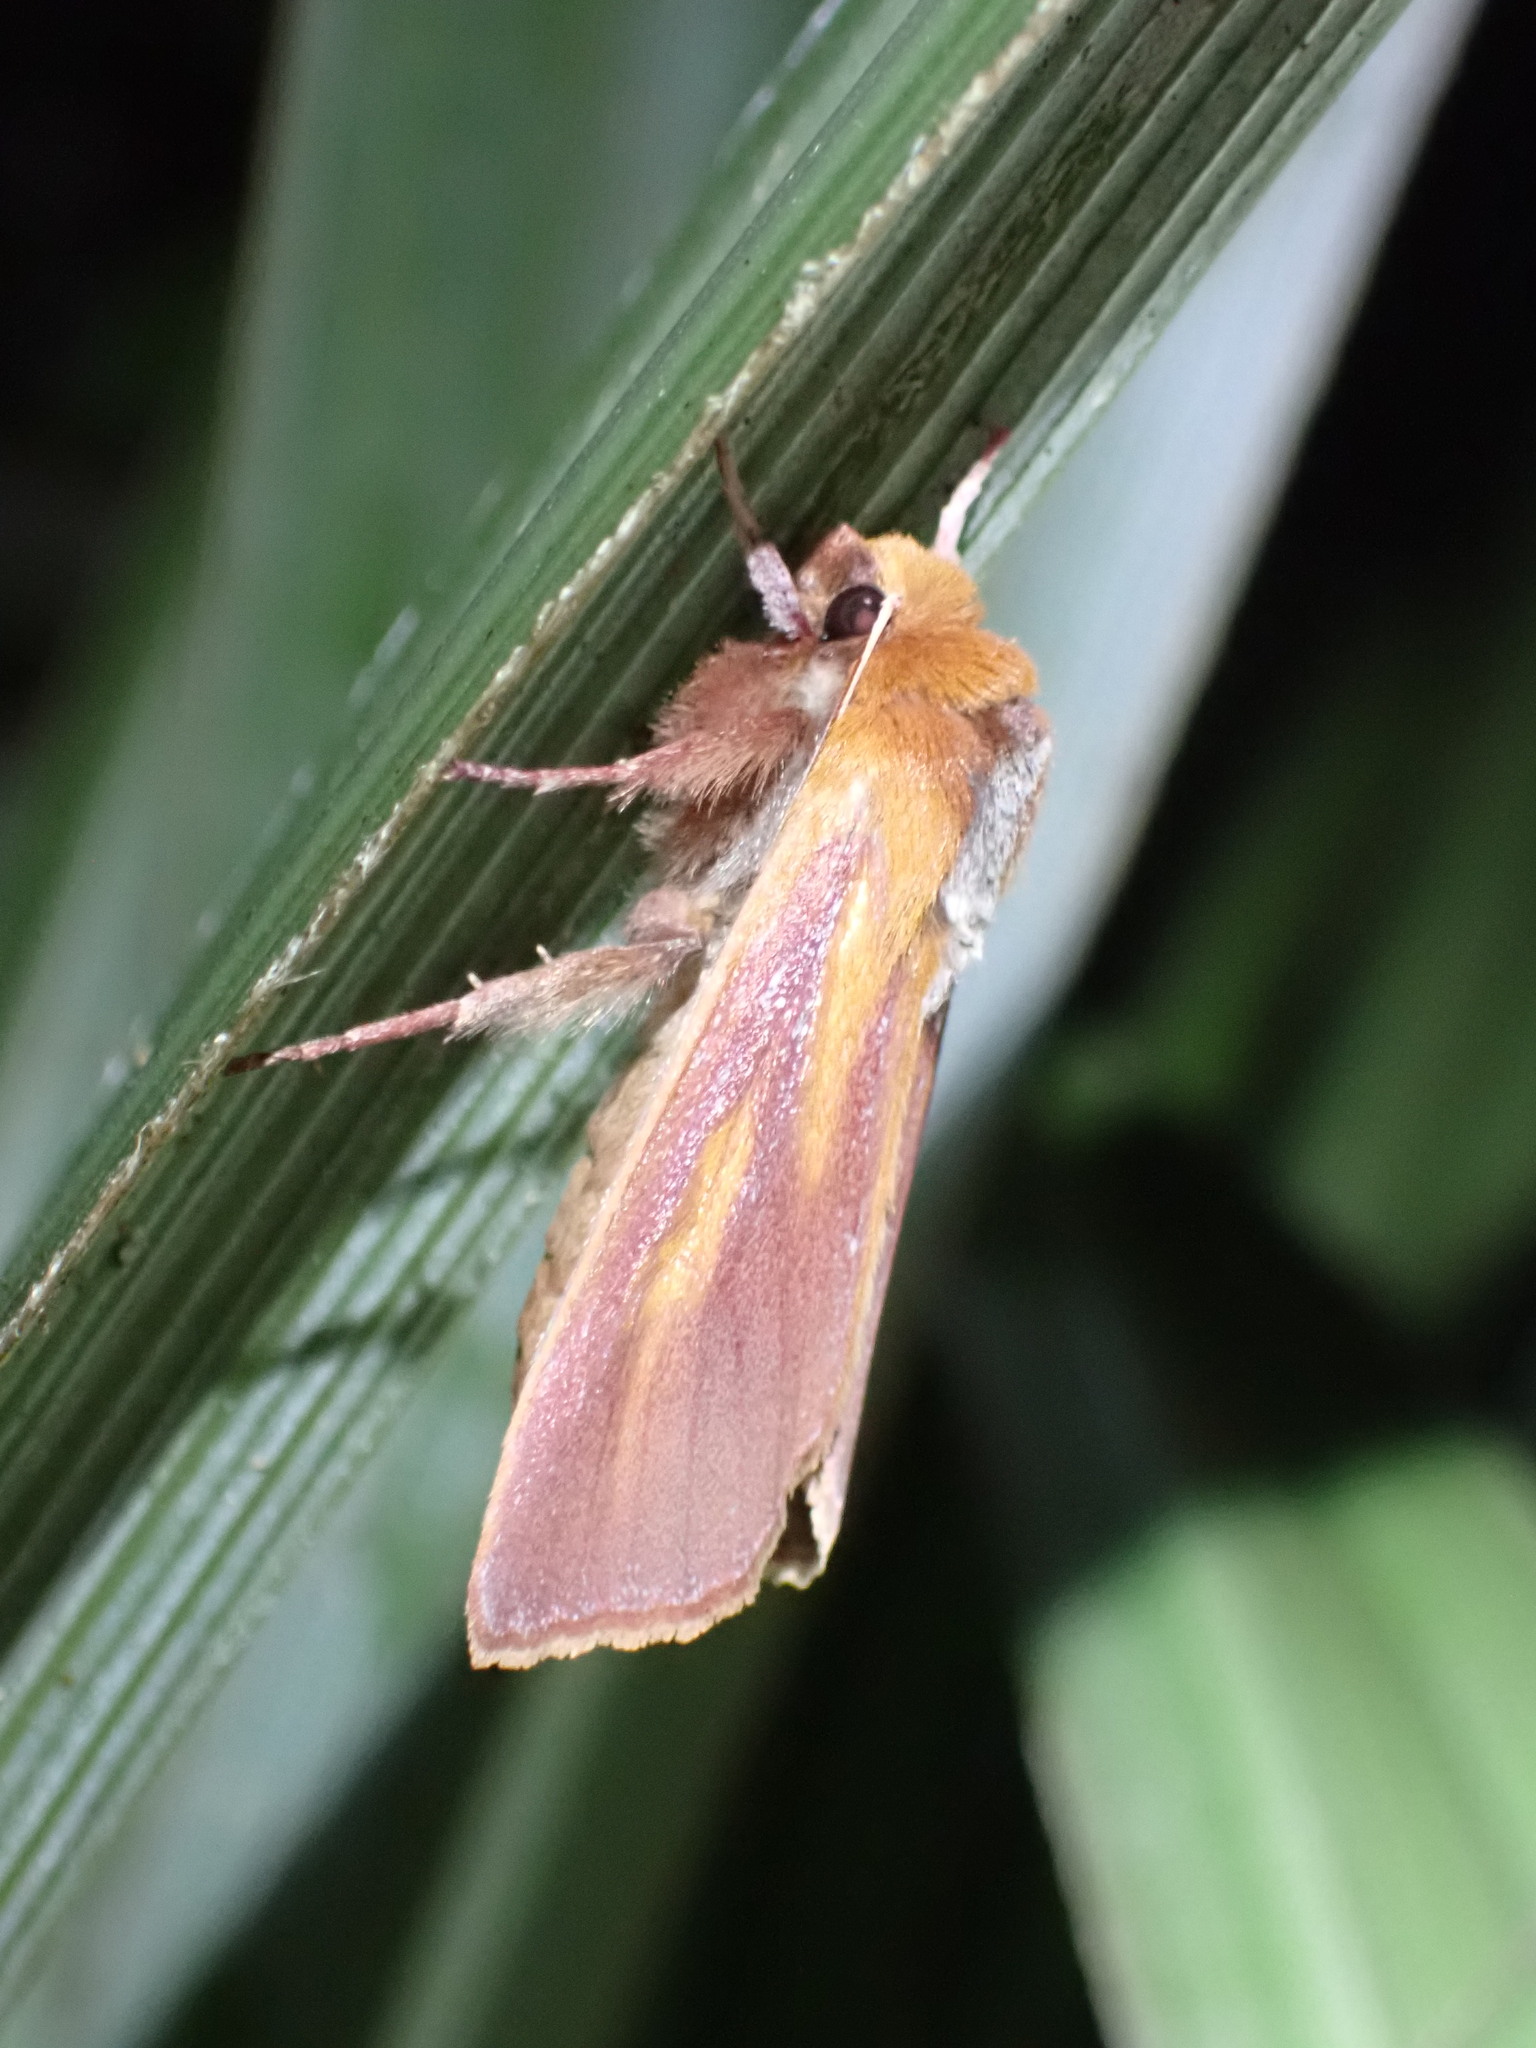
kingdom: Animalia
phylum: Arthropoda
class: Insecta
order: Lepidoptera
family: Noctuidae
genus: Ichneutica
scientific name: Ichneutica
